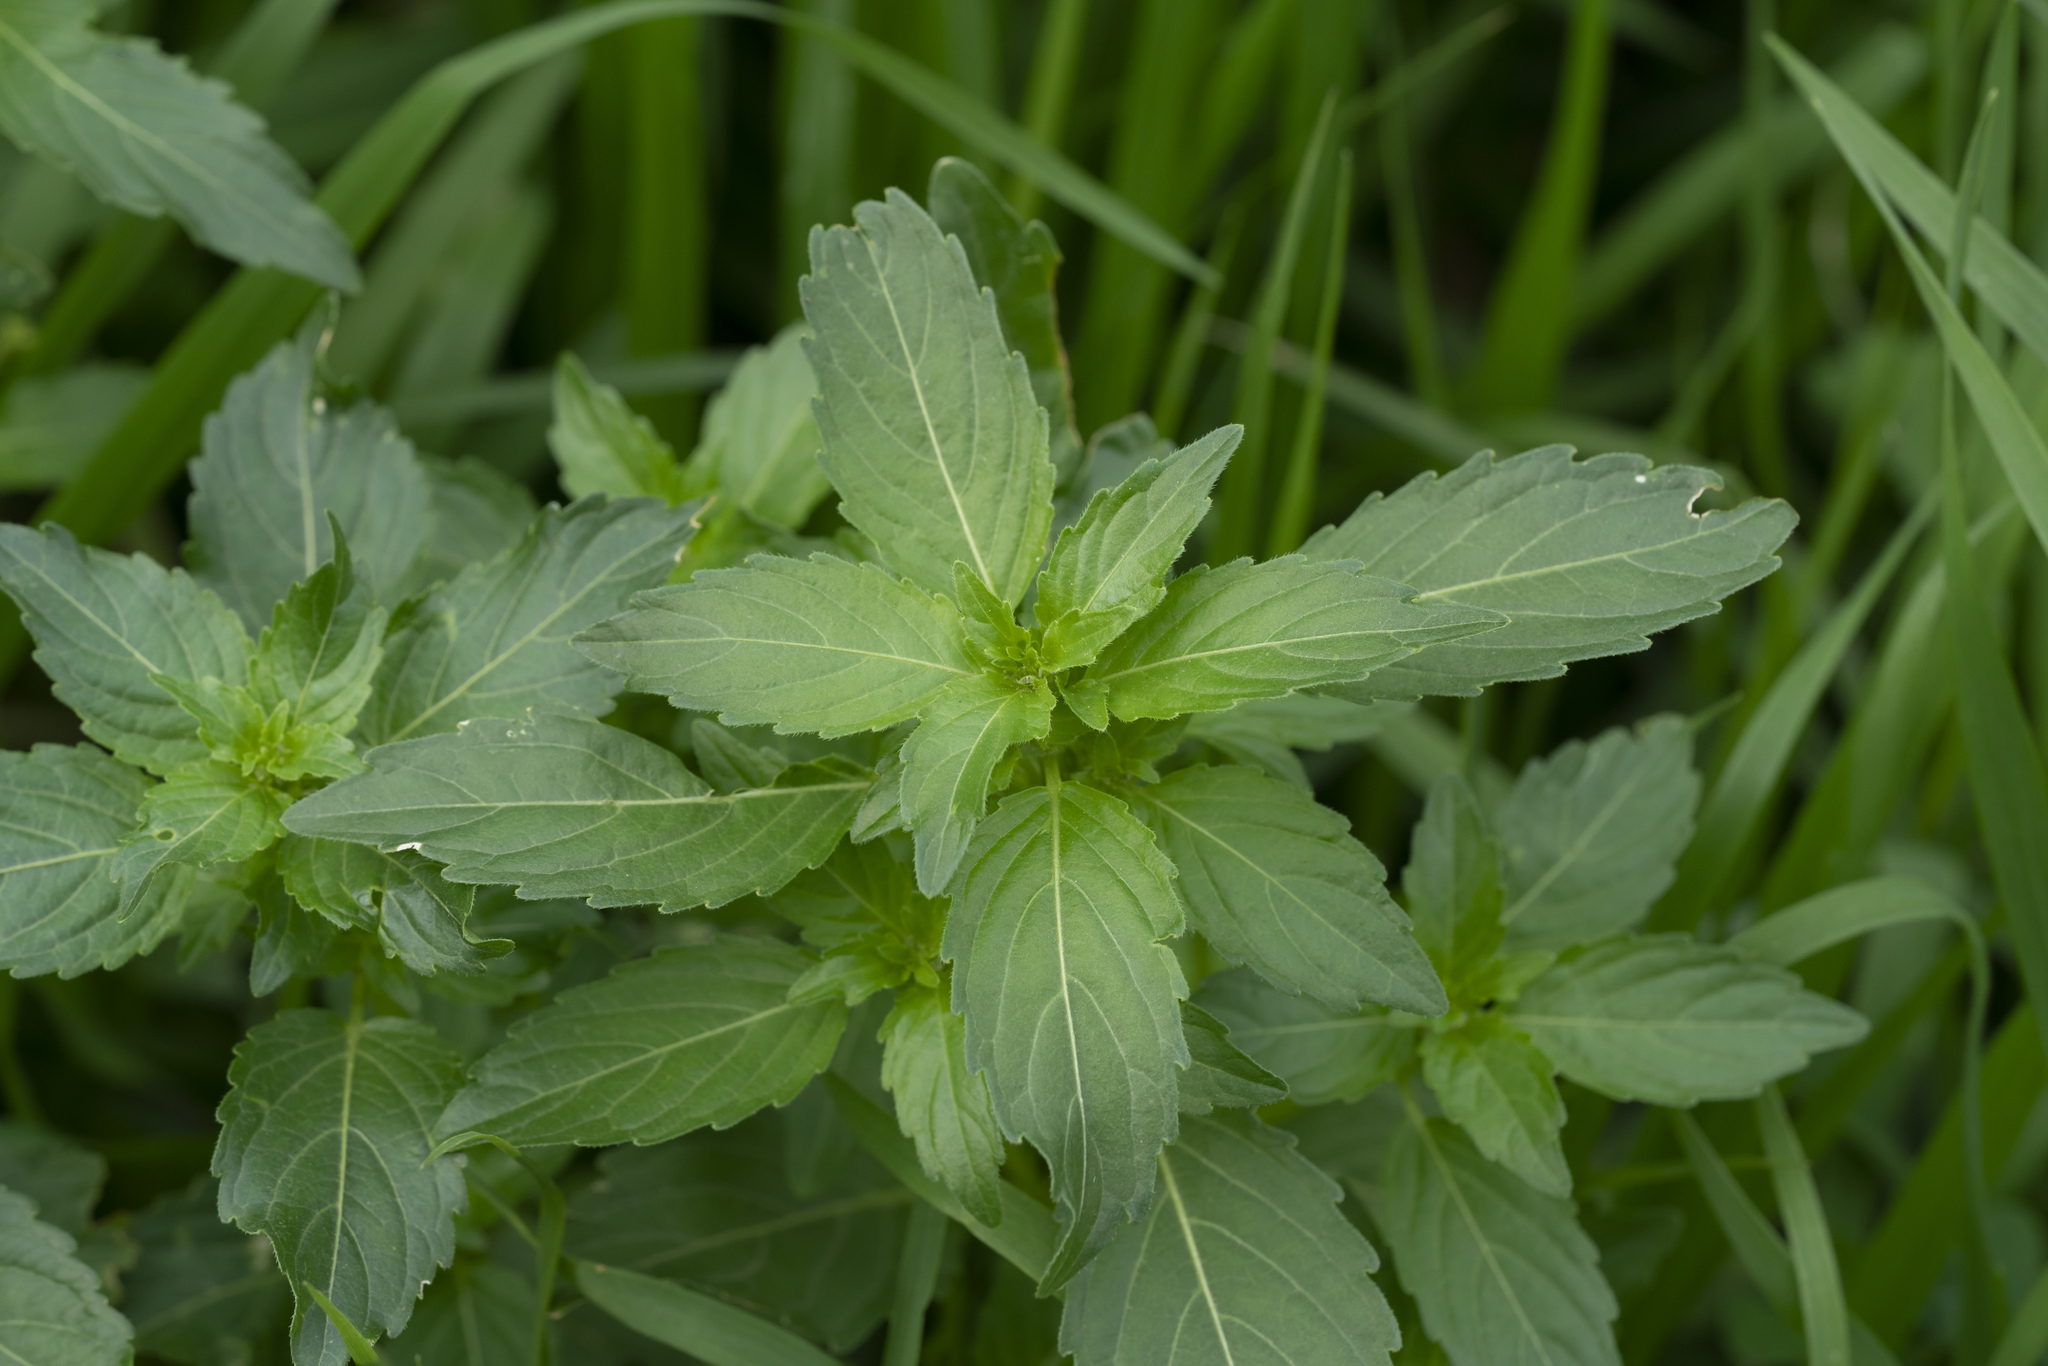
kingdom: Plantae
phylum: Tracheophyta
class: Magnoliopsida
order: Malpighiales
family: Euphorbiaceae
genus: Mercurialis
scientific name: Mercurialis annua
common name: Annual mercury
